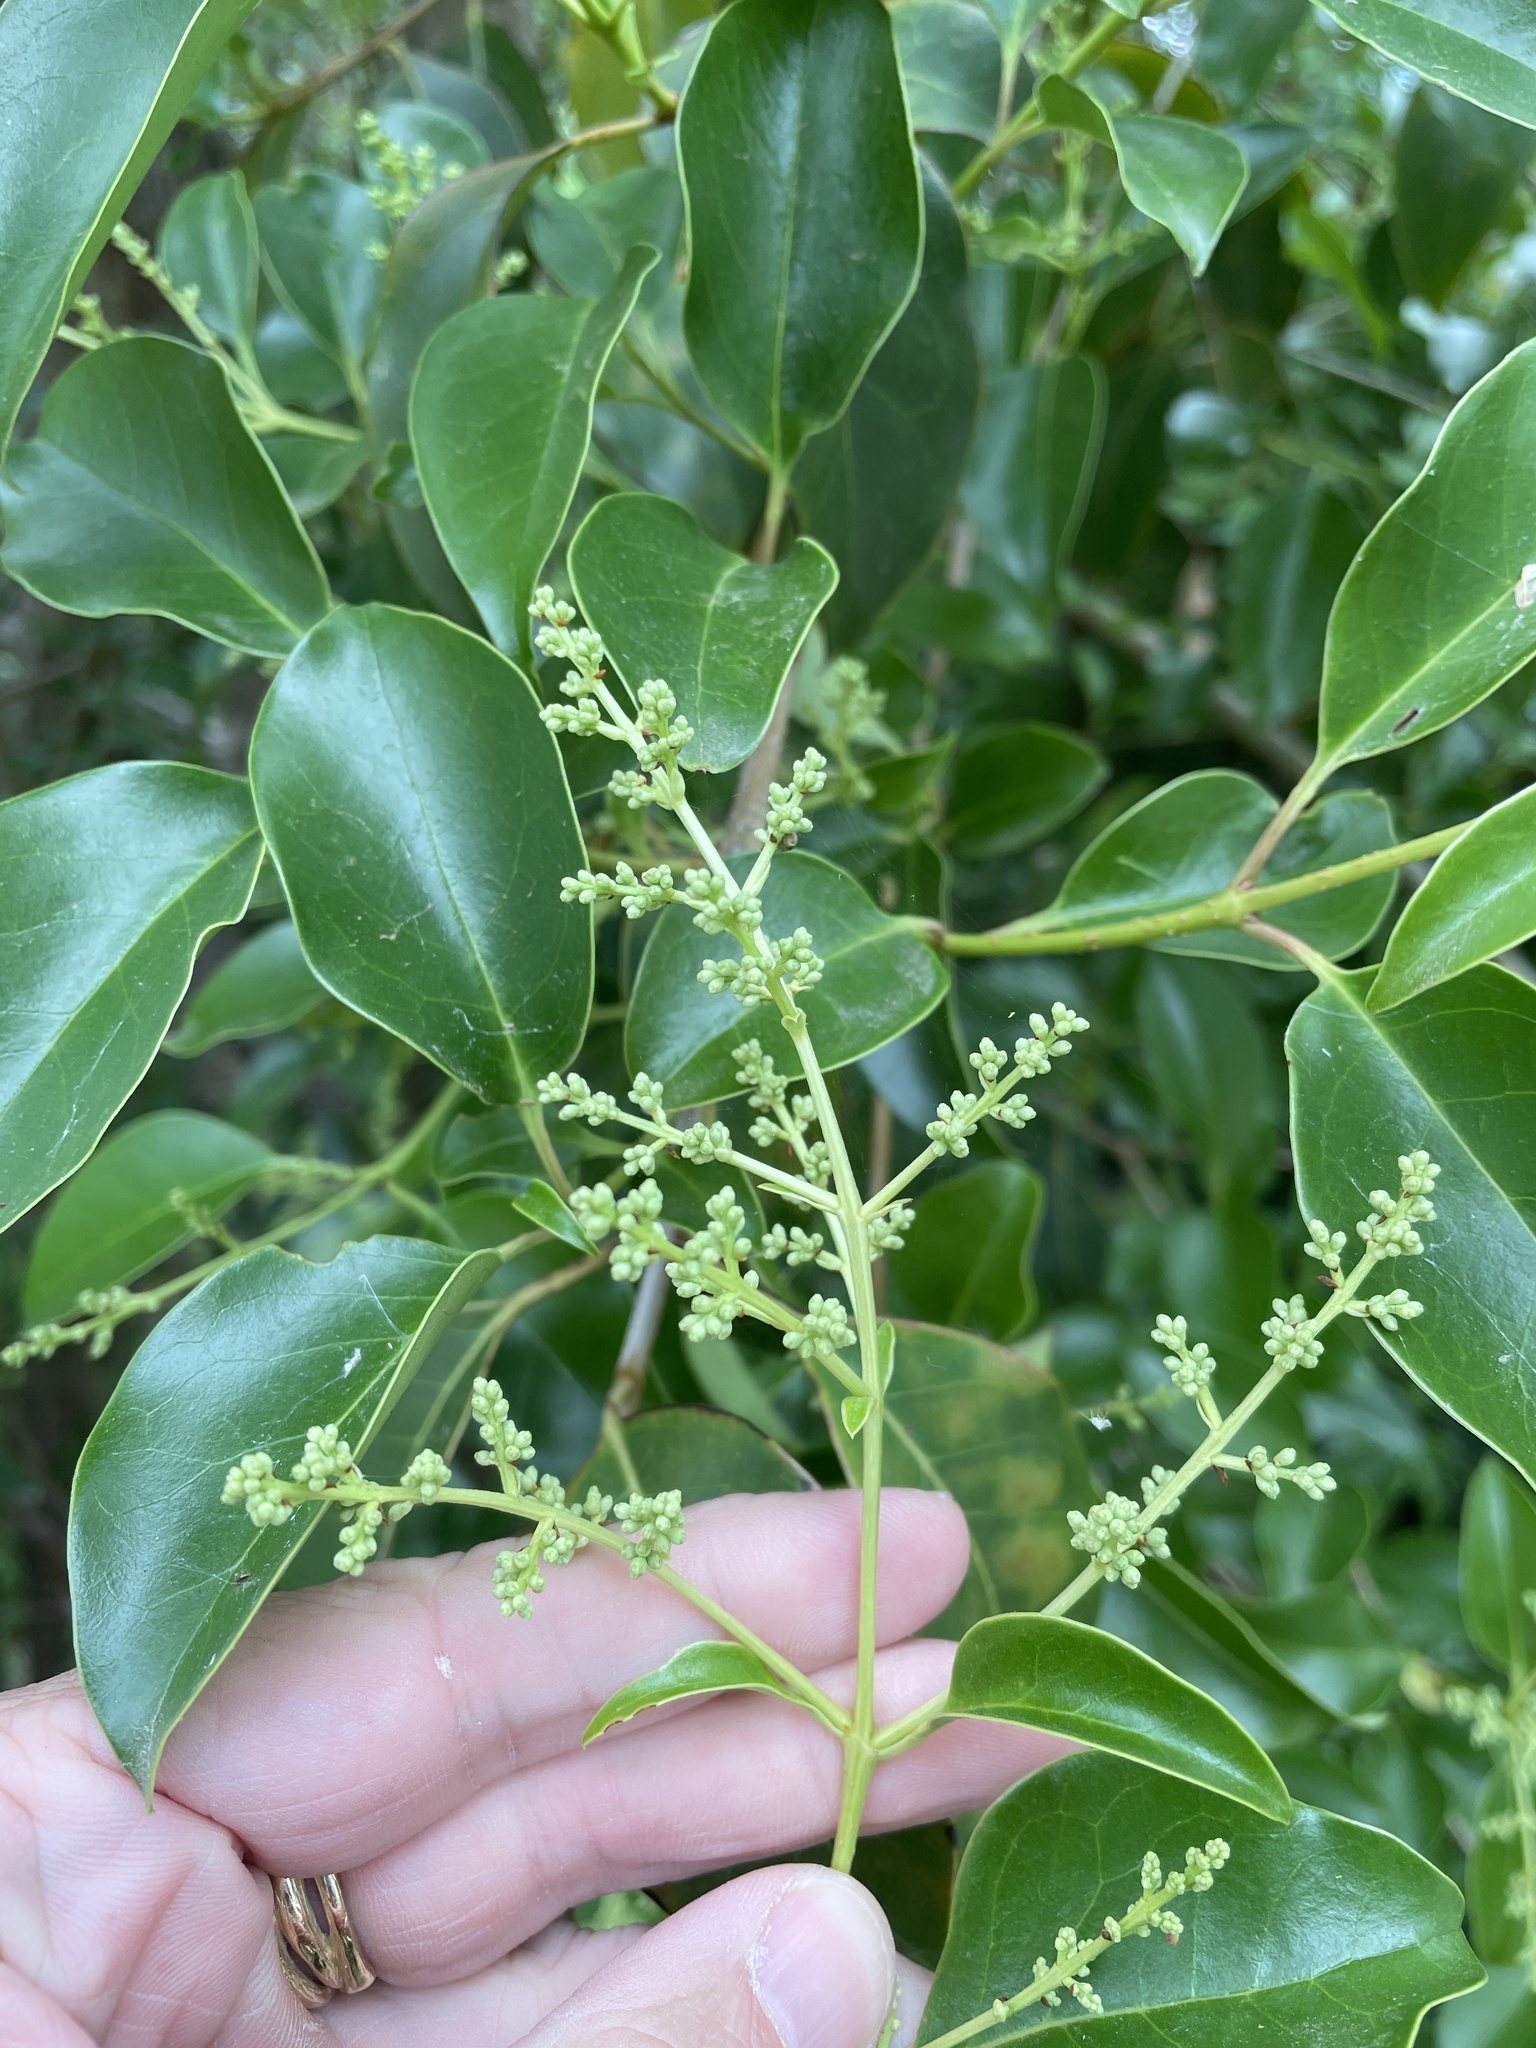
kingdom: Plantae
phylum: Tracheophyta
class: Magnoliopsida
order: Lamiales
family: Oleaceae
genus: Ligustrum
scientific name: Ligustrum lucidum
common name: Glossy privet
